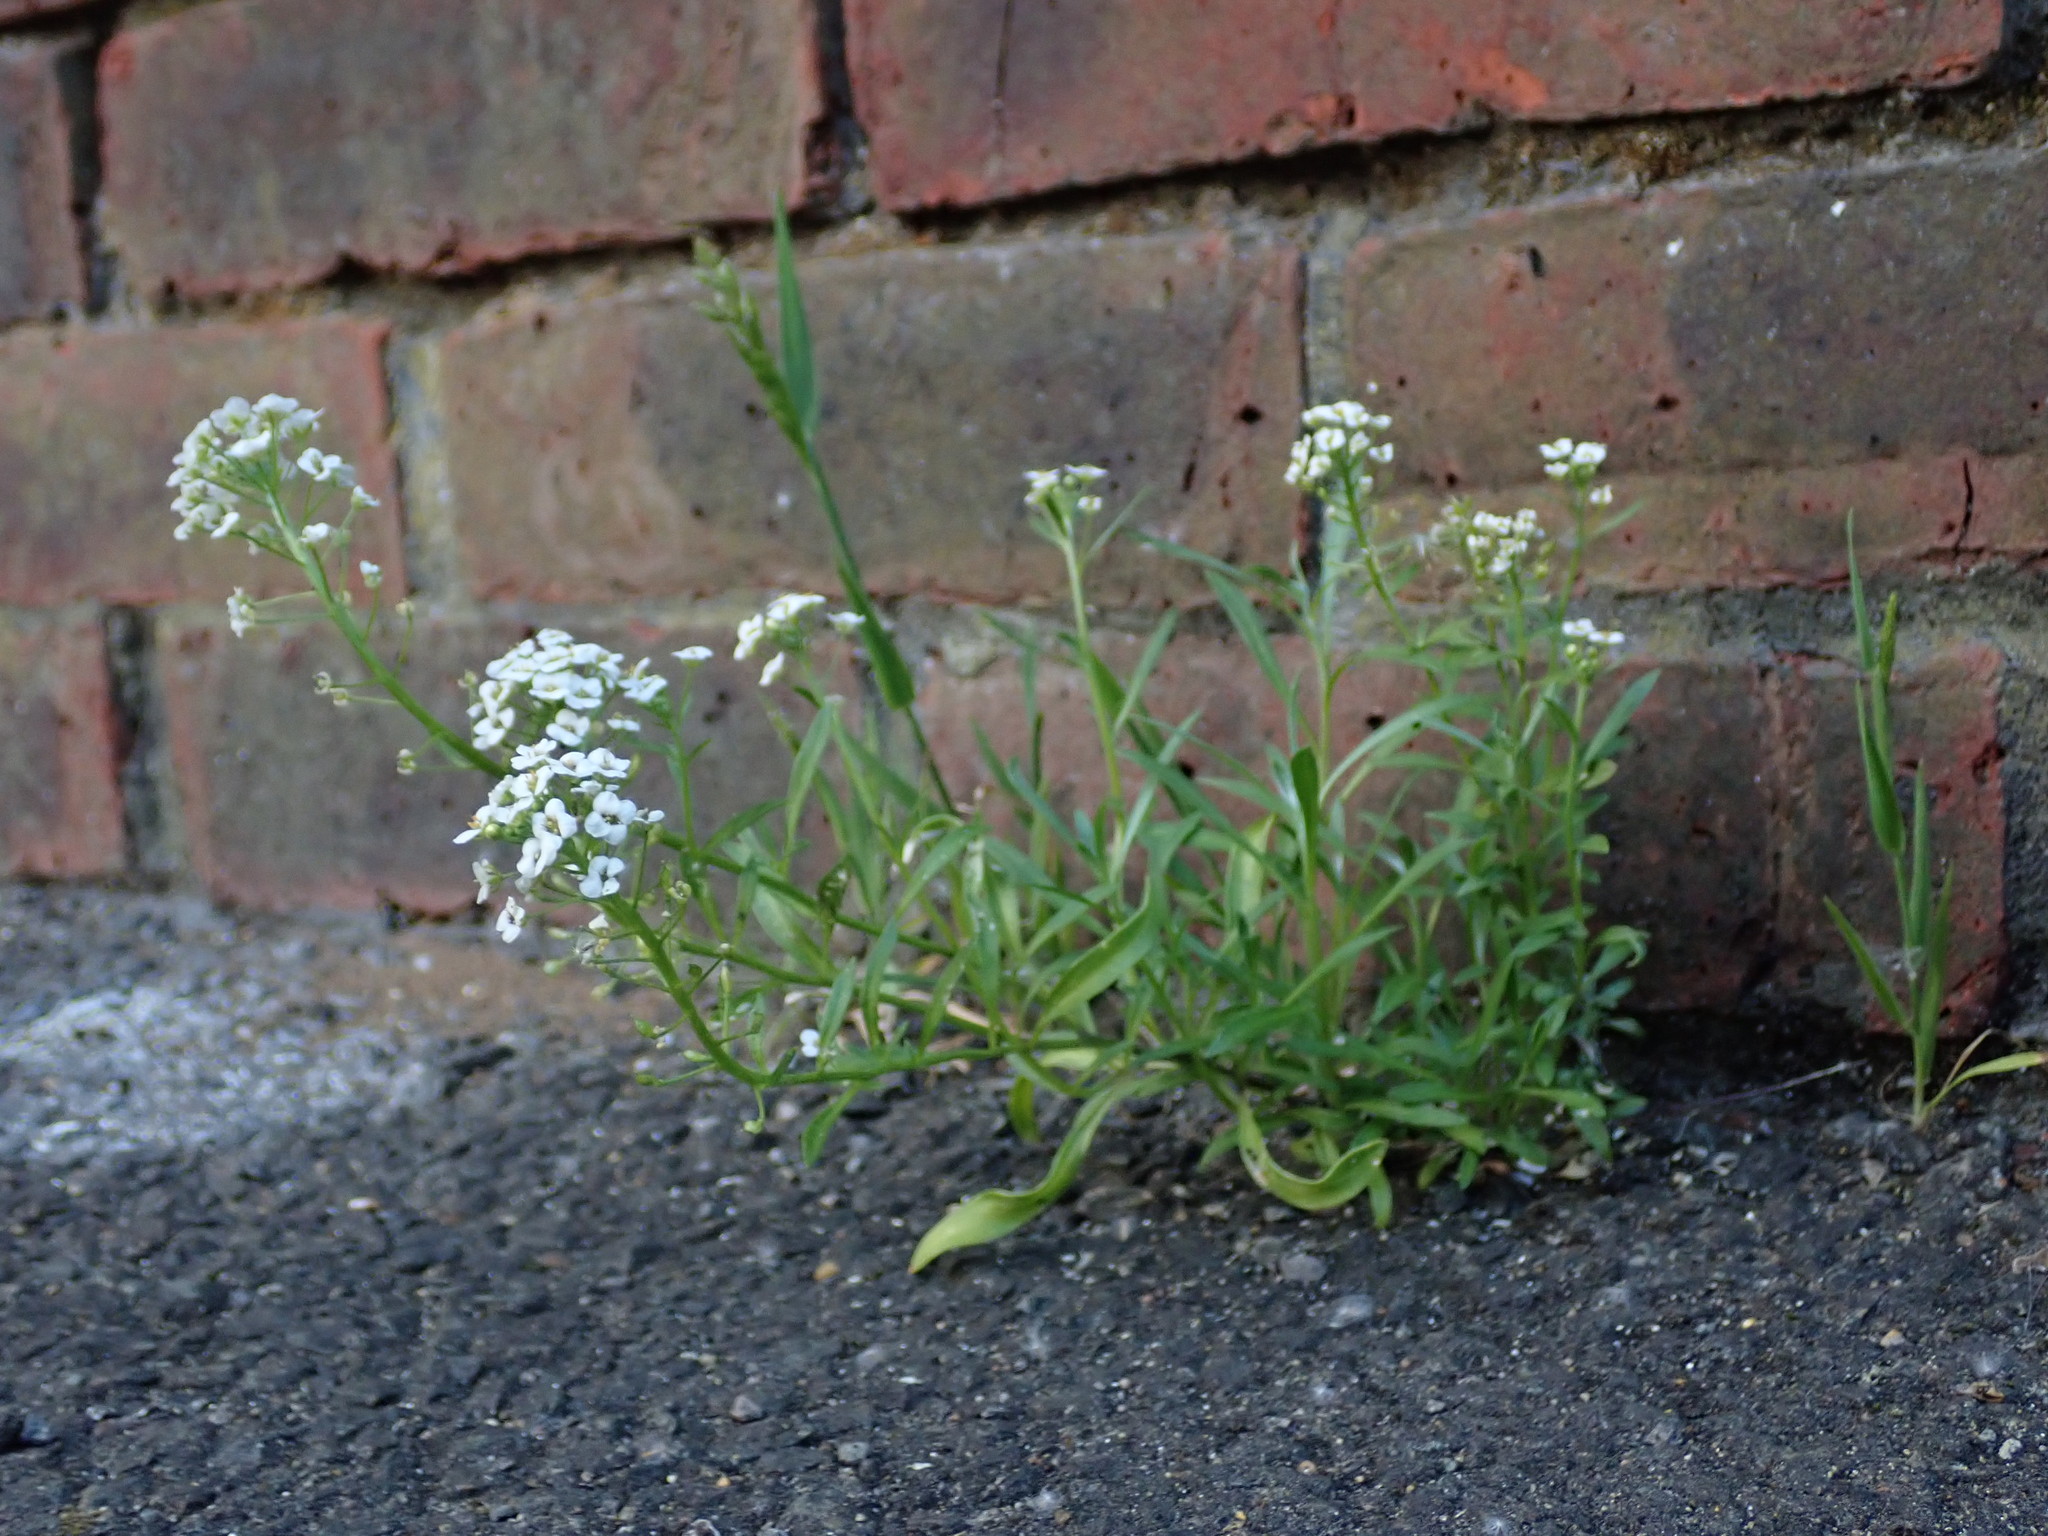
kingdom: Plantae
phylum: Tracheophyta
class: Magnoliopsida
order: Brassicales
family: Brassicaceae
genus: Lobularia
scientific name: Lobularia maritima
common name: Sweet alison
